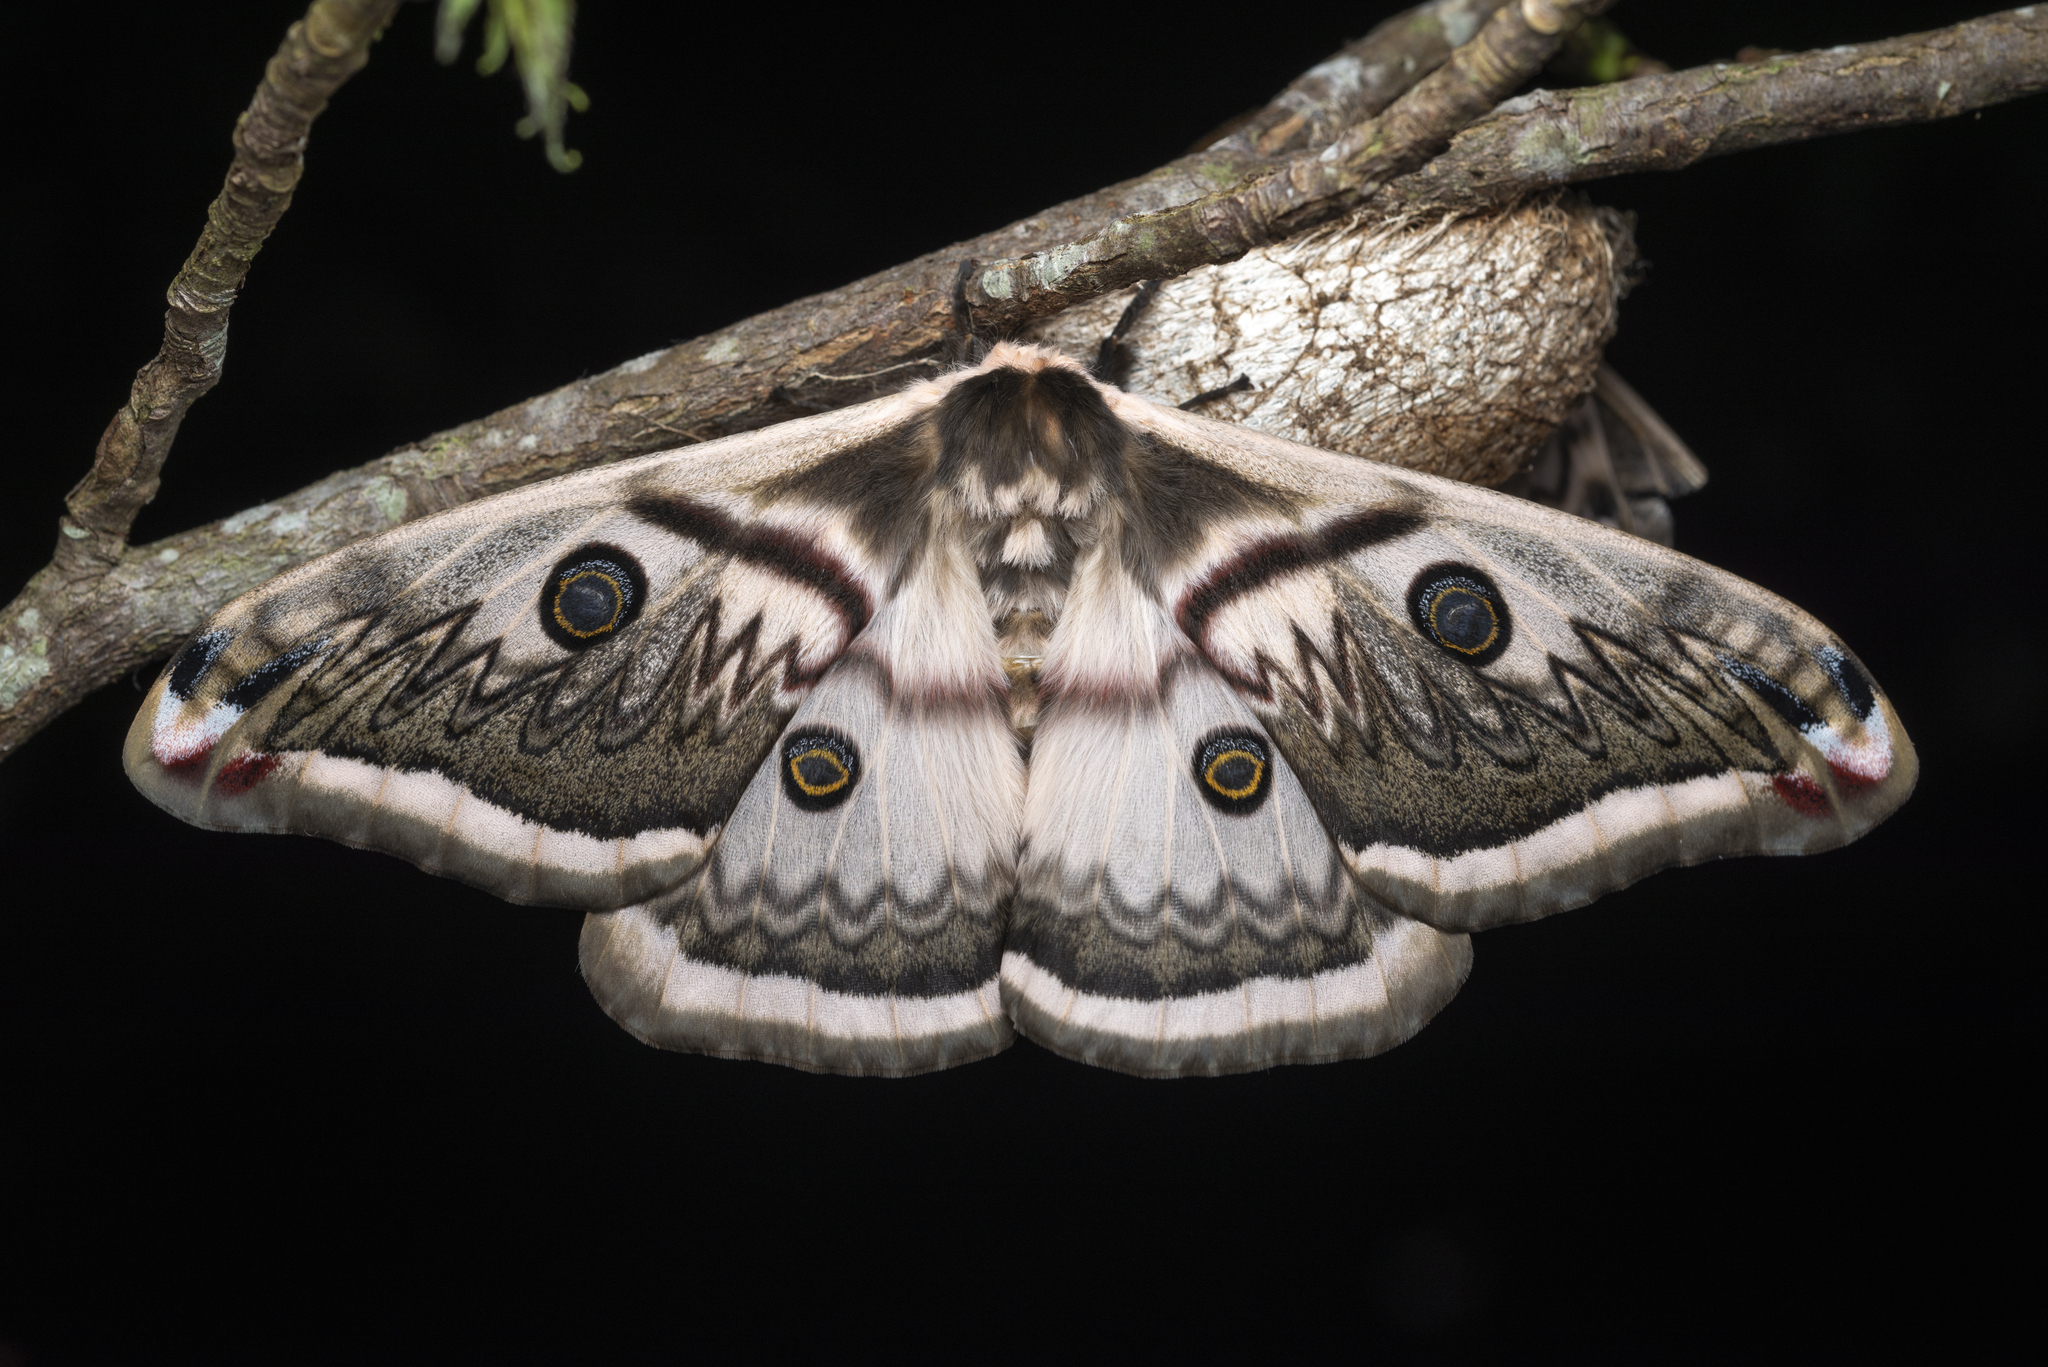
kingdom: Animalia
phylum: Arthropoda
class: Insecta
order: Lepidoptera
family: Saturniidae
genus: Saturnia
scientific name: Saturnia pyretorum
